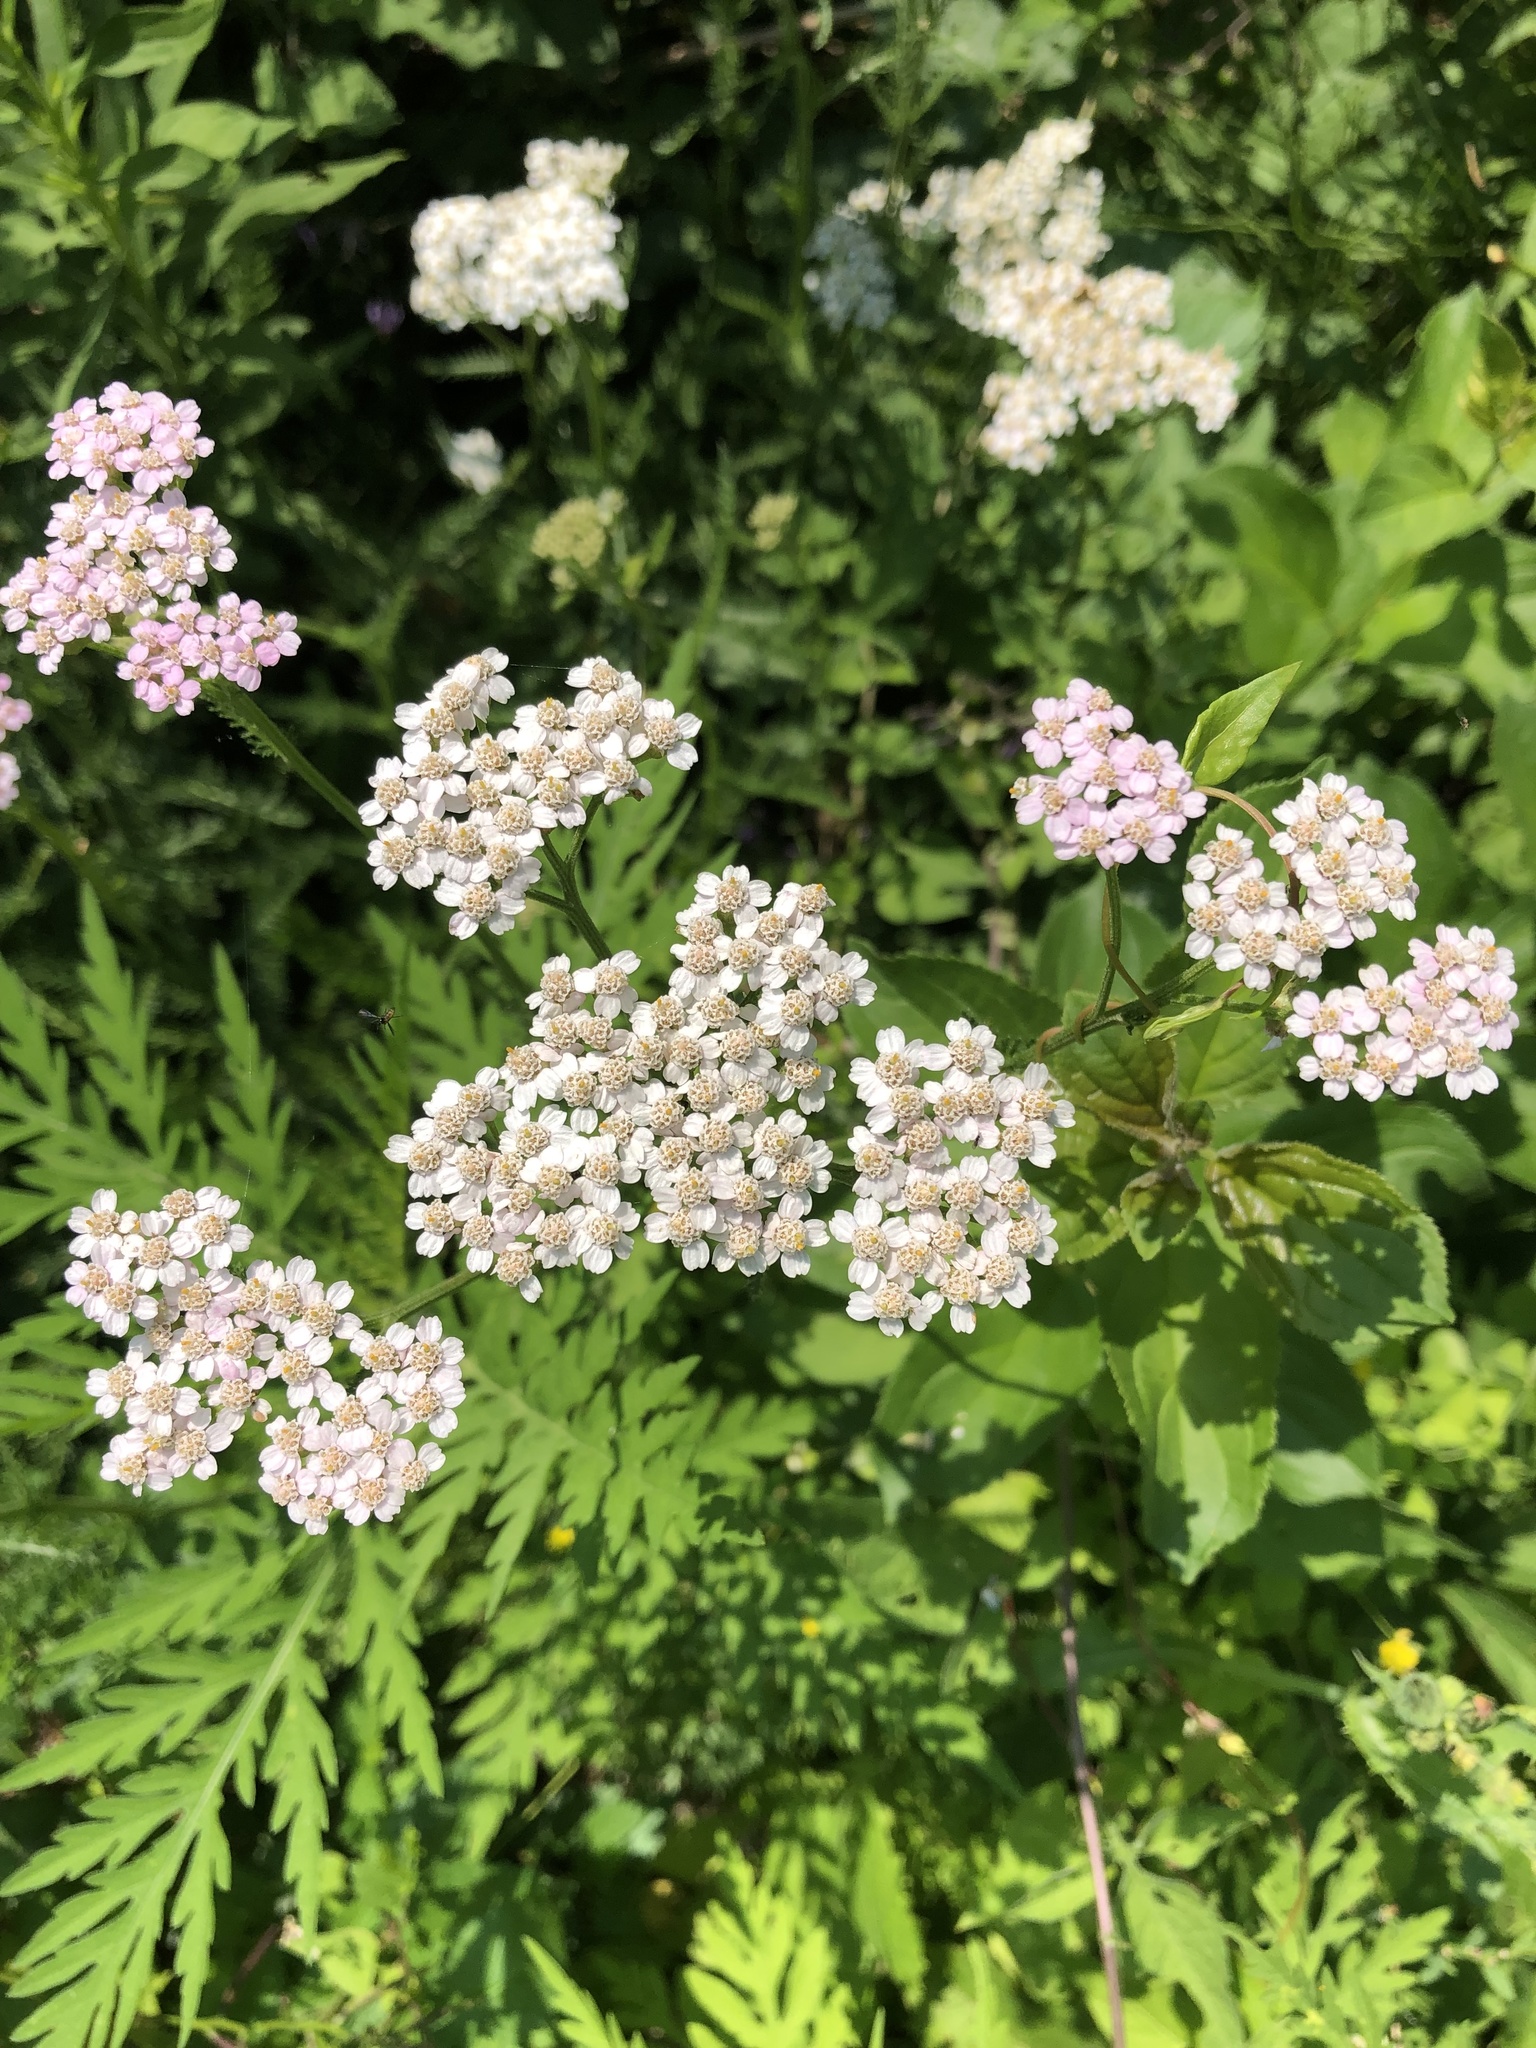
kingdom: Plantae
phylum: Tracheophyta
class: Magnoliopsida
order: Asterales
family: Asteraceae
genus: Achillea
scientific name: Achillea millefolium
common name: Yarrow
